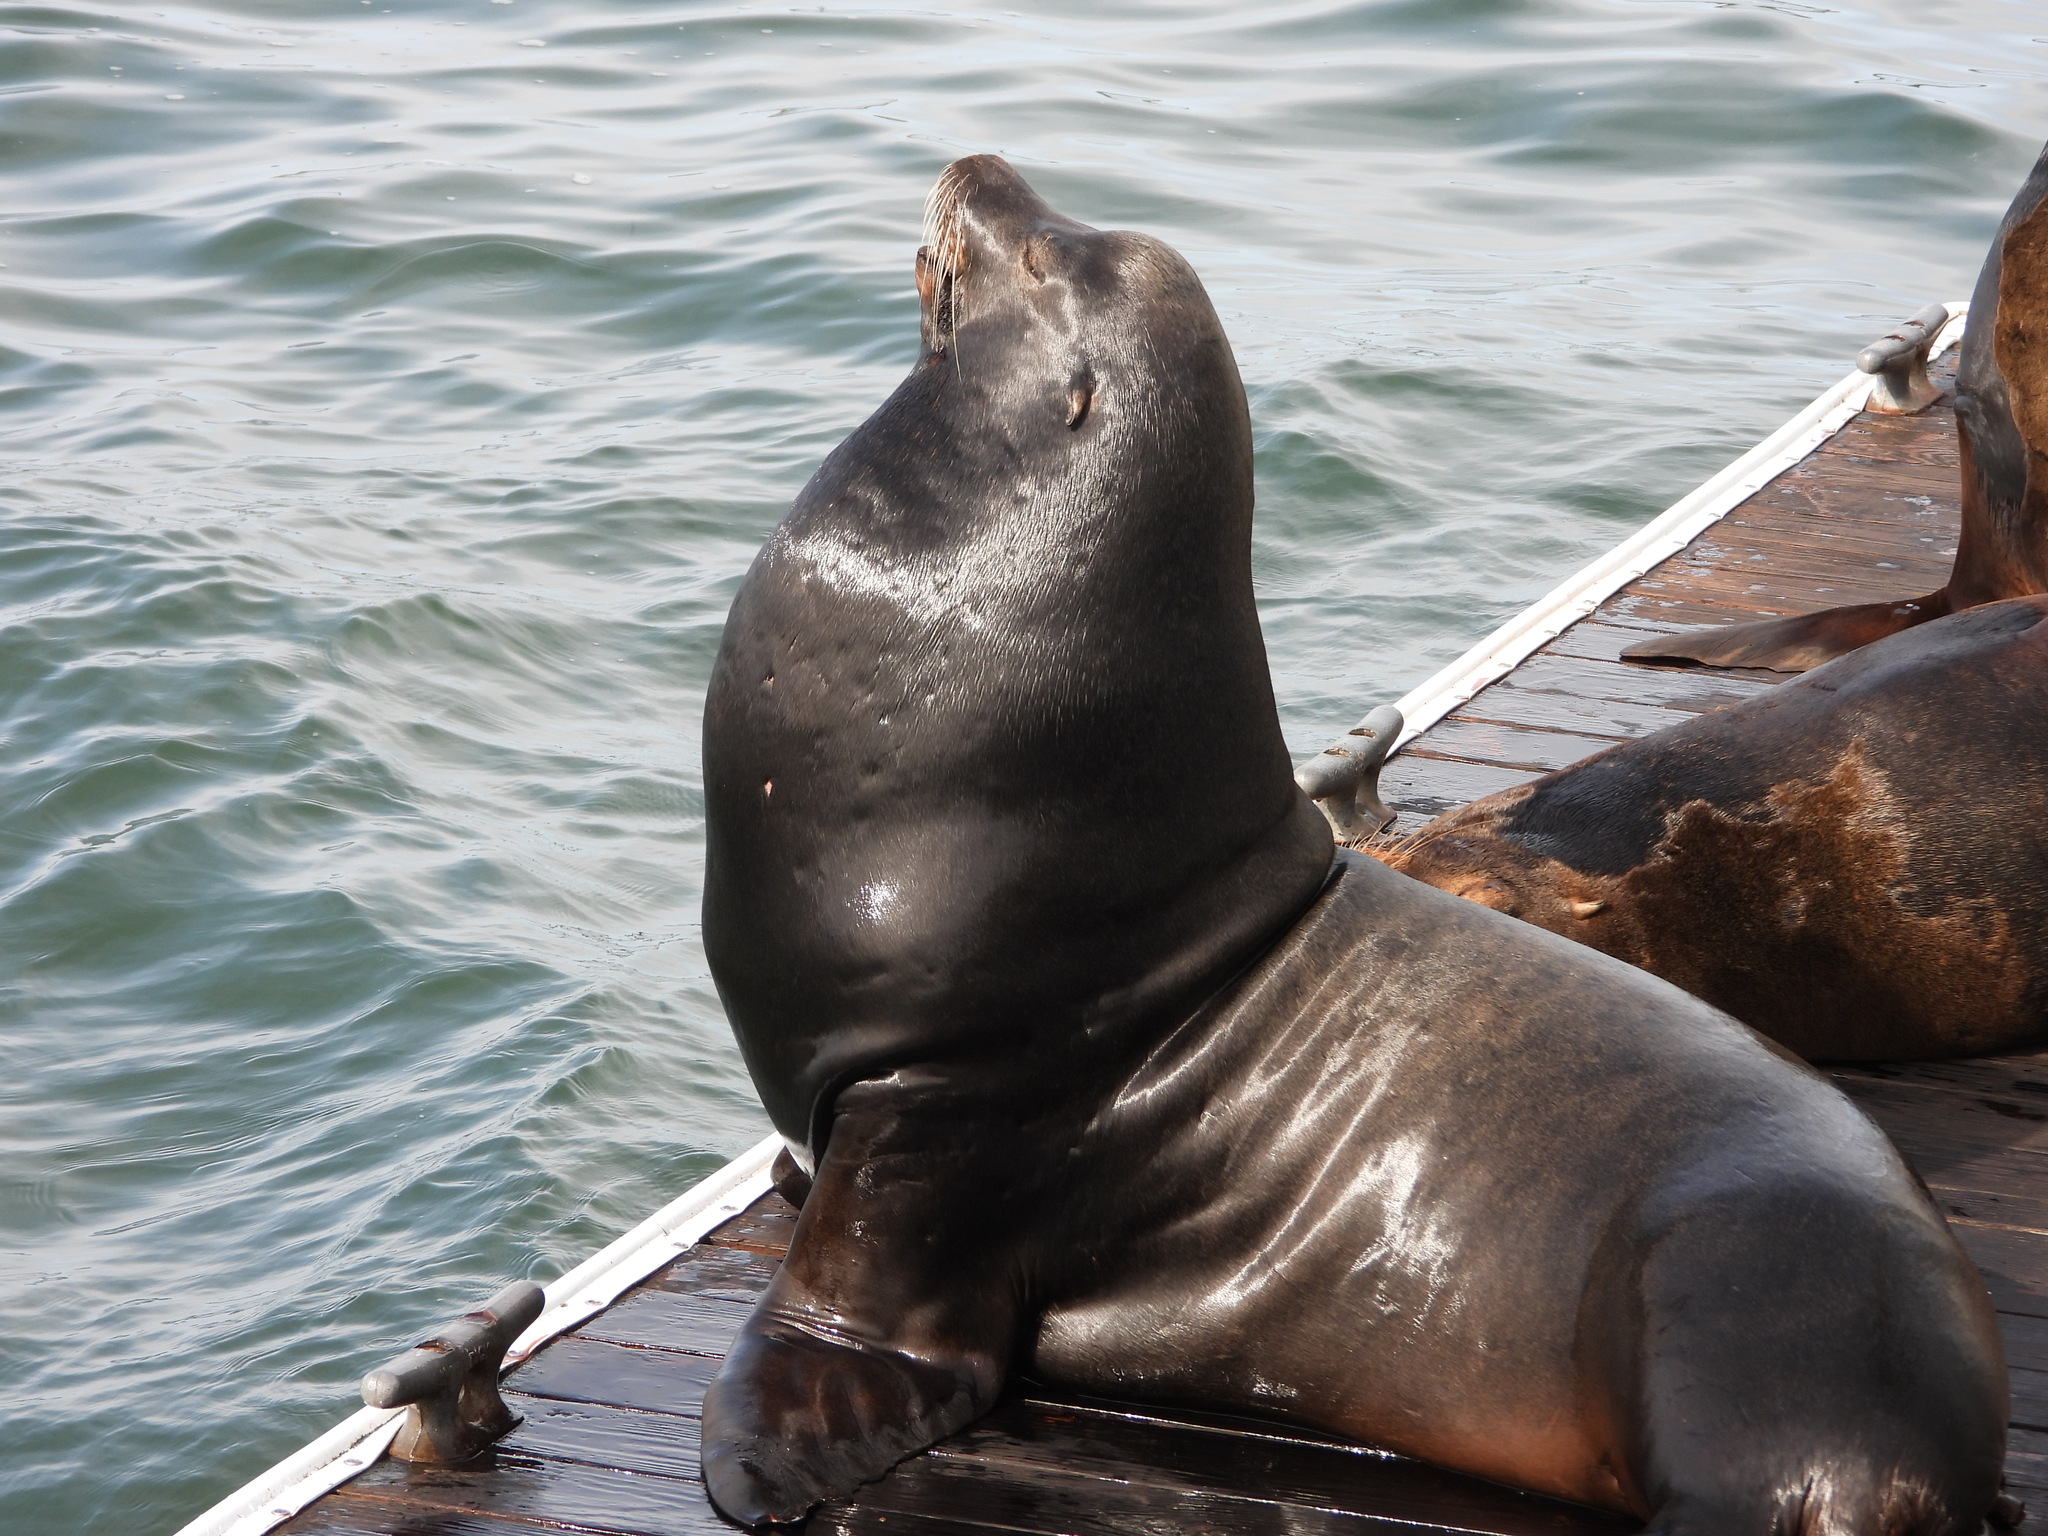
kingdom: Animalia
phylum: Chordata
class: Mammalia
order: Carnivora
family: Otariidae
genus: Zalophus
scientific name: Zalophus californianus
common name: California sea lion
